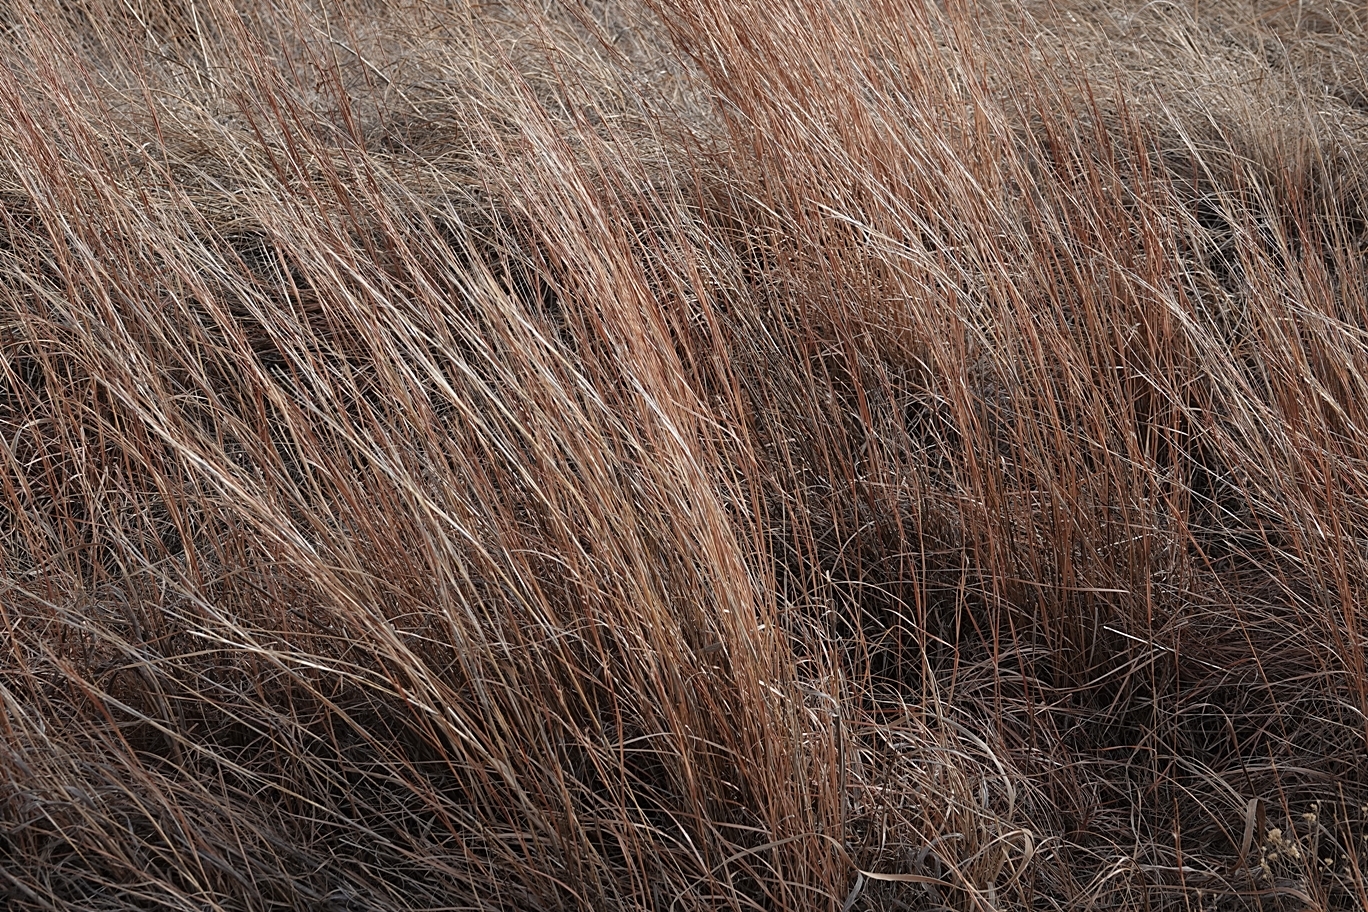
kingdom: Plantae
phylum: Tracheophyta
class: Liliopsida
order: Poales
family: Poaceae
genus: Schizachyrium
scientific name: Schizachyrium scoparium
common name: Little bluestem
